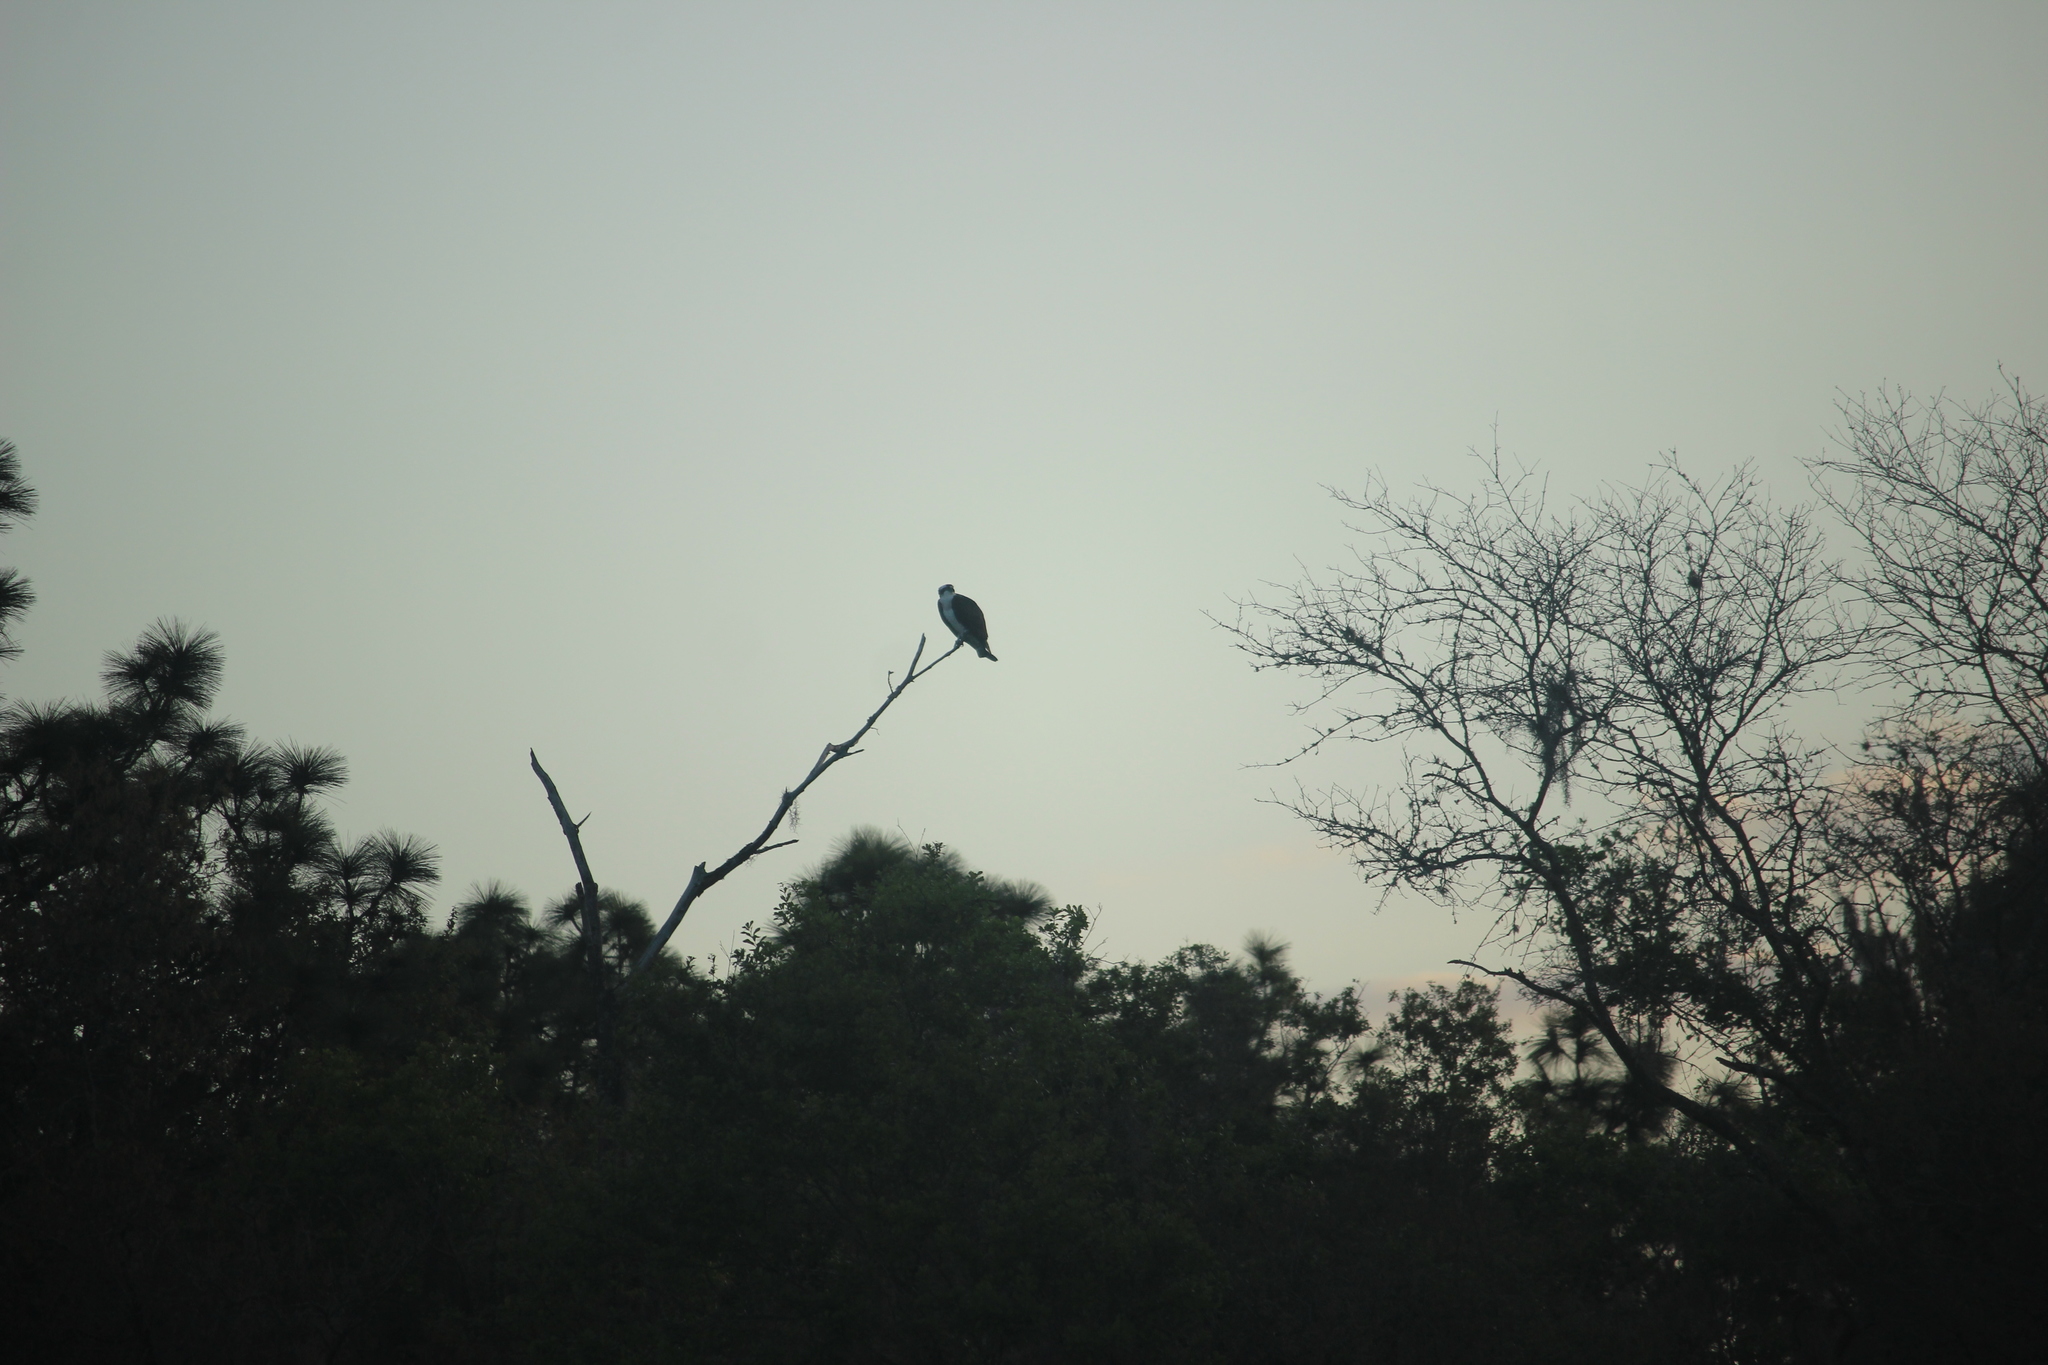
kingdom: Animalia
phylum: Chordata
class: Aves
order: Accipitriformes
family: Pandionidae
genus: Pandion
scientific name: Pandion haliaetus
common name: Osprey
